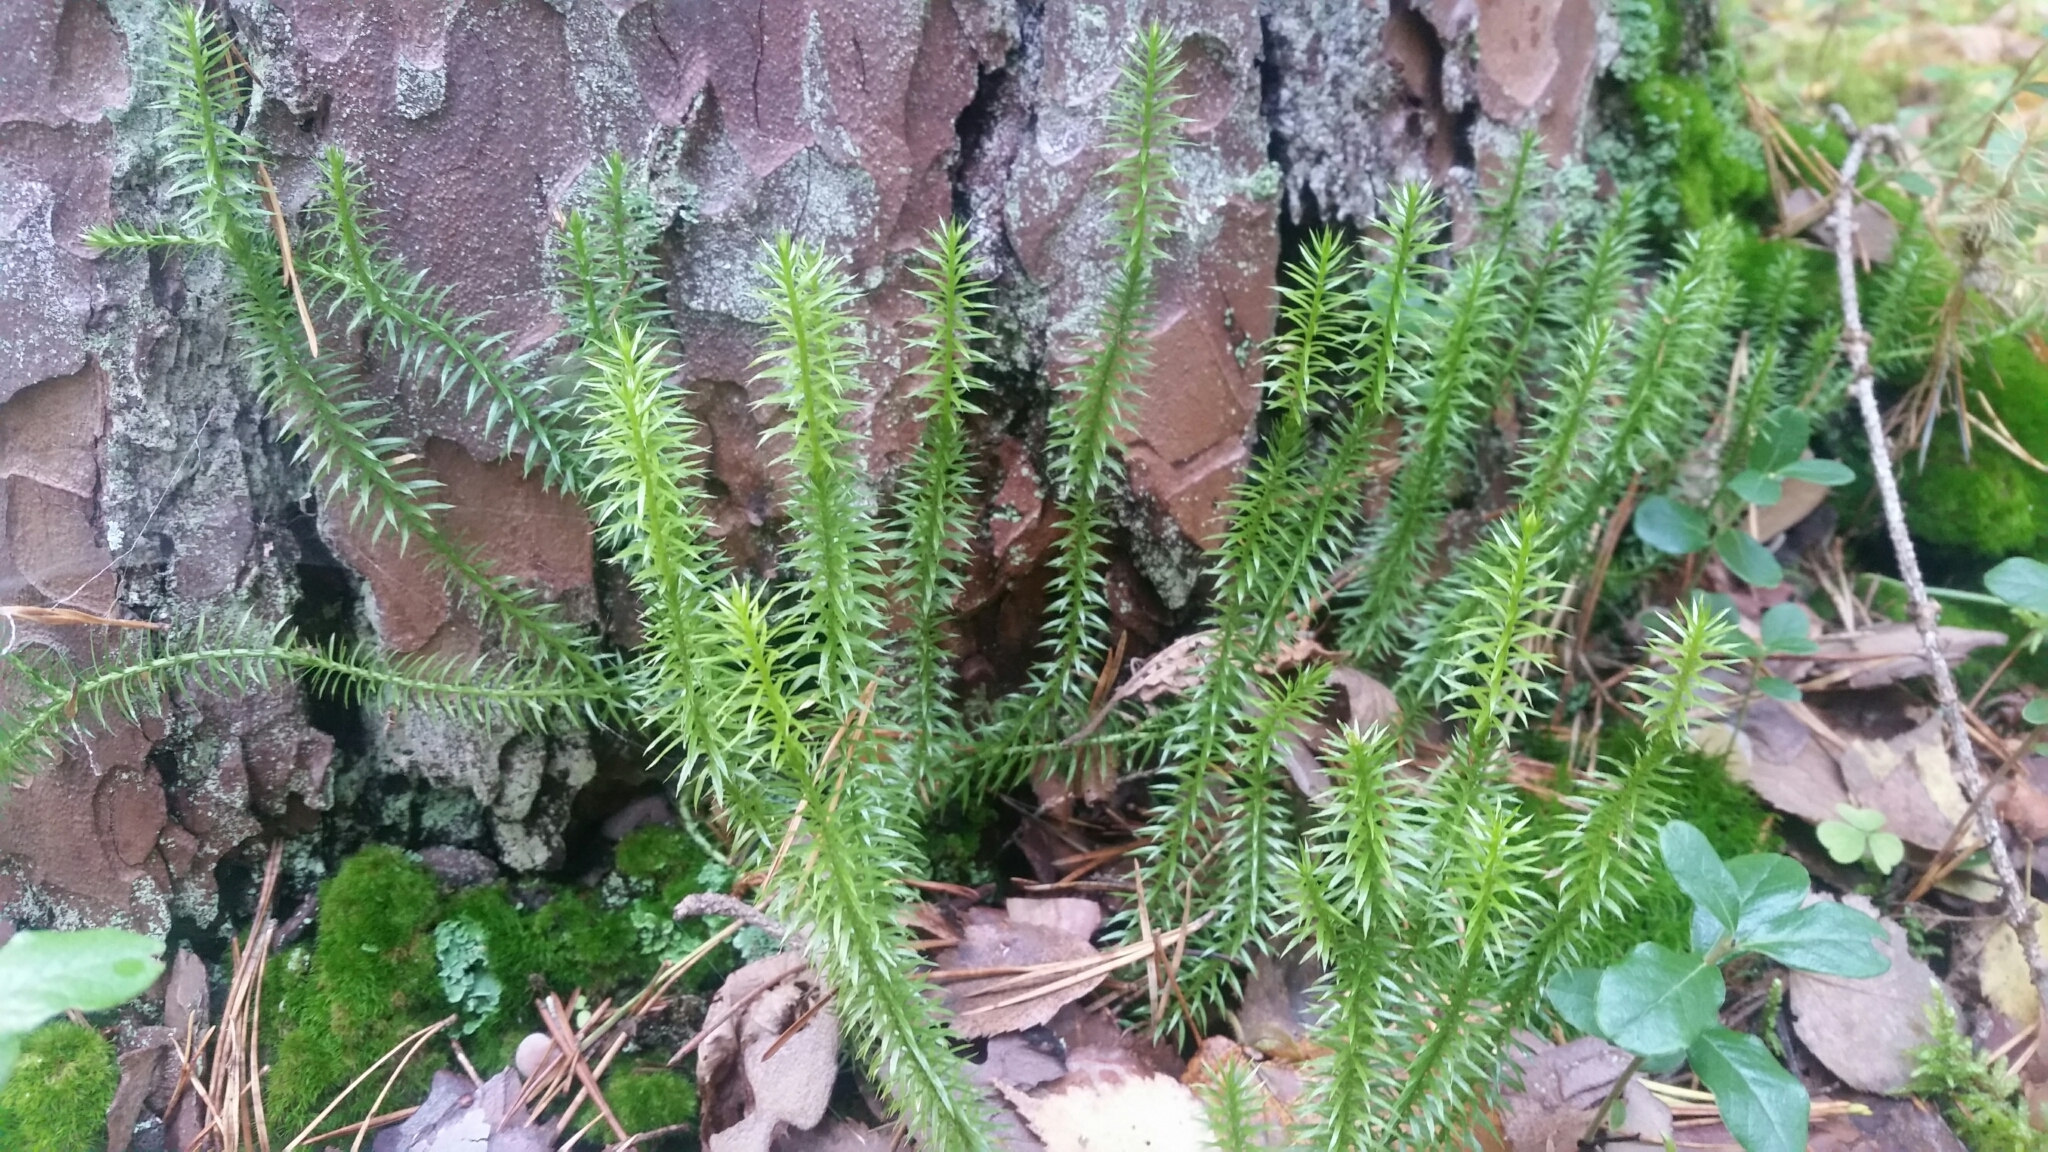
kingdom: Plantae
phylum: Tracheophyta
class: Lycopodiopsida
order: Lycopodiales
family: Lycopodiaceae
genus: Spinulum
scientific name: Spinulum annotinum
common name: Interrupted club-moss
